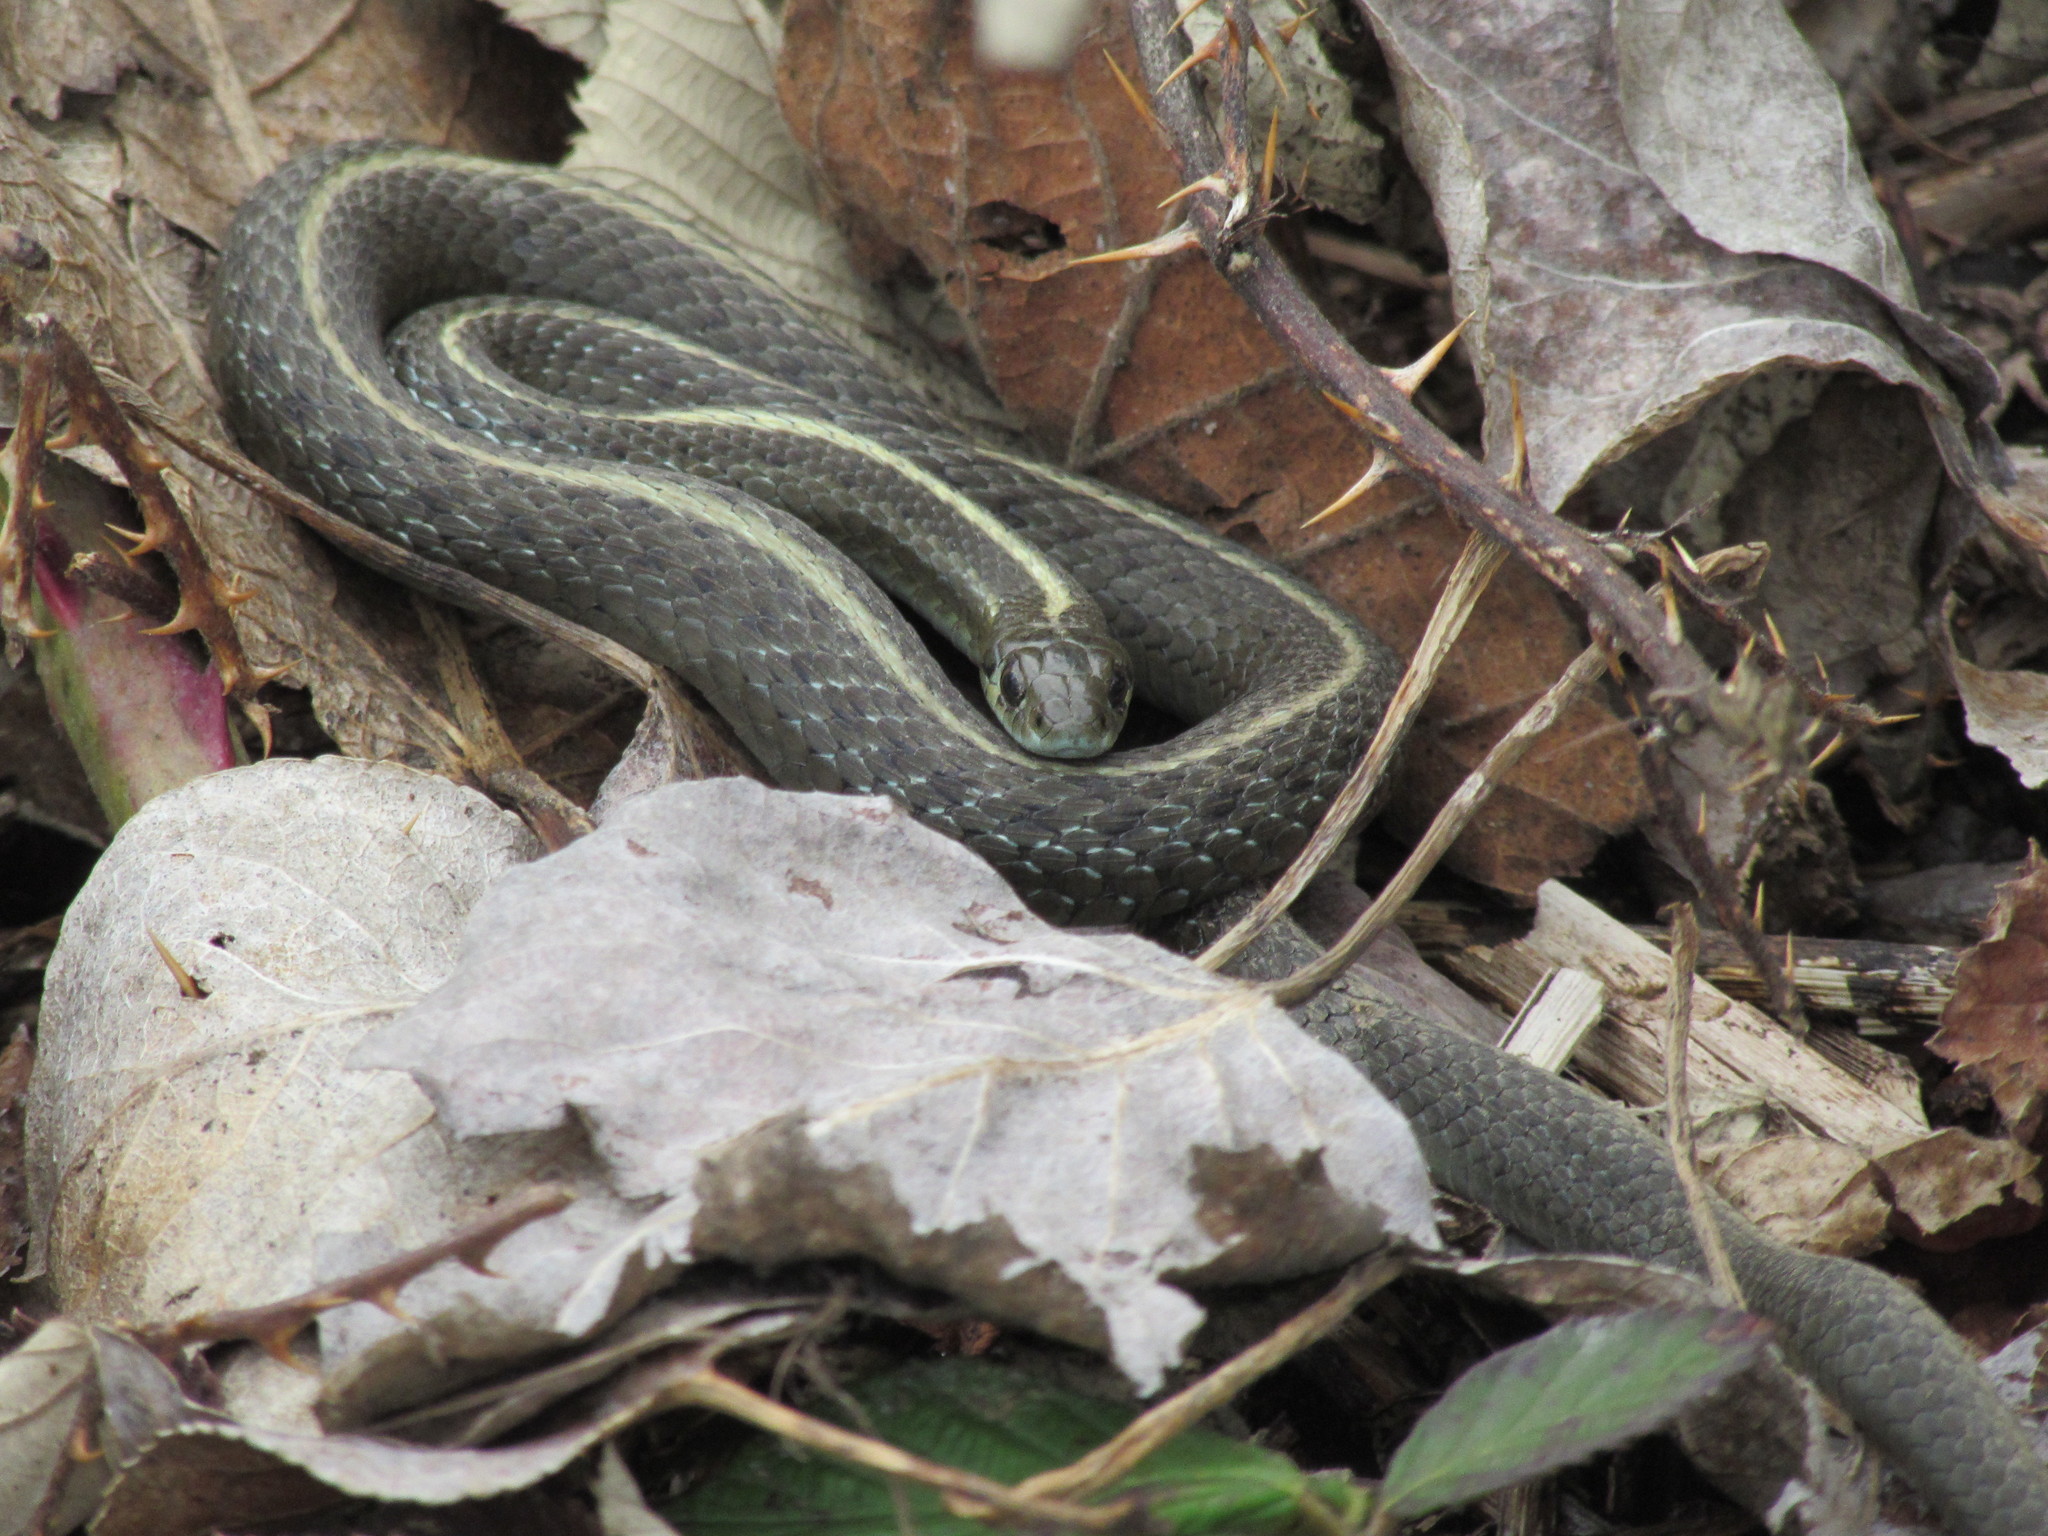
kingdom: Animalia
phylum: Chordata
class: Squamata
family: Colubridae
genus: Thamnophis
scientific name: Thamnophis ordinoides
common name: Northwestern garter snake
